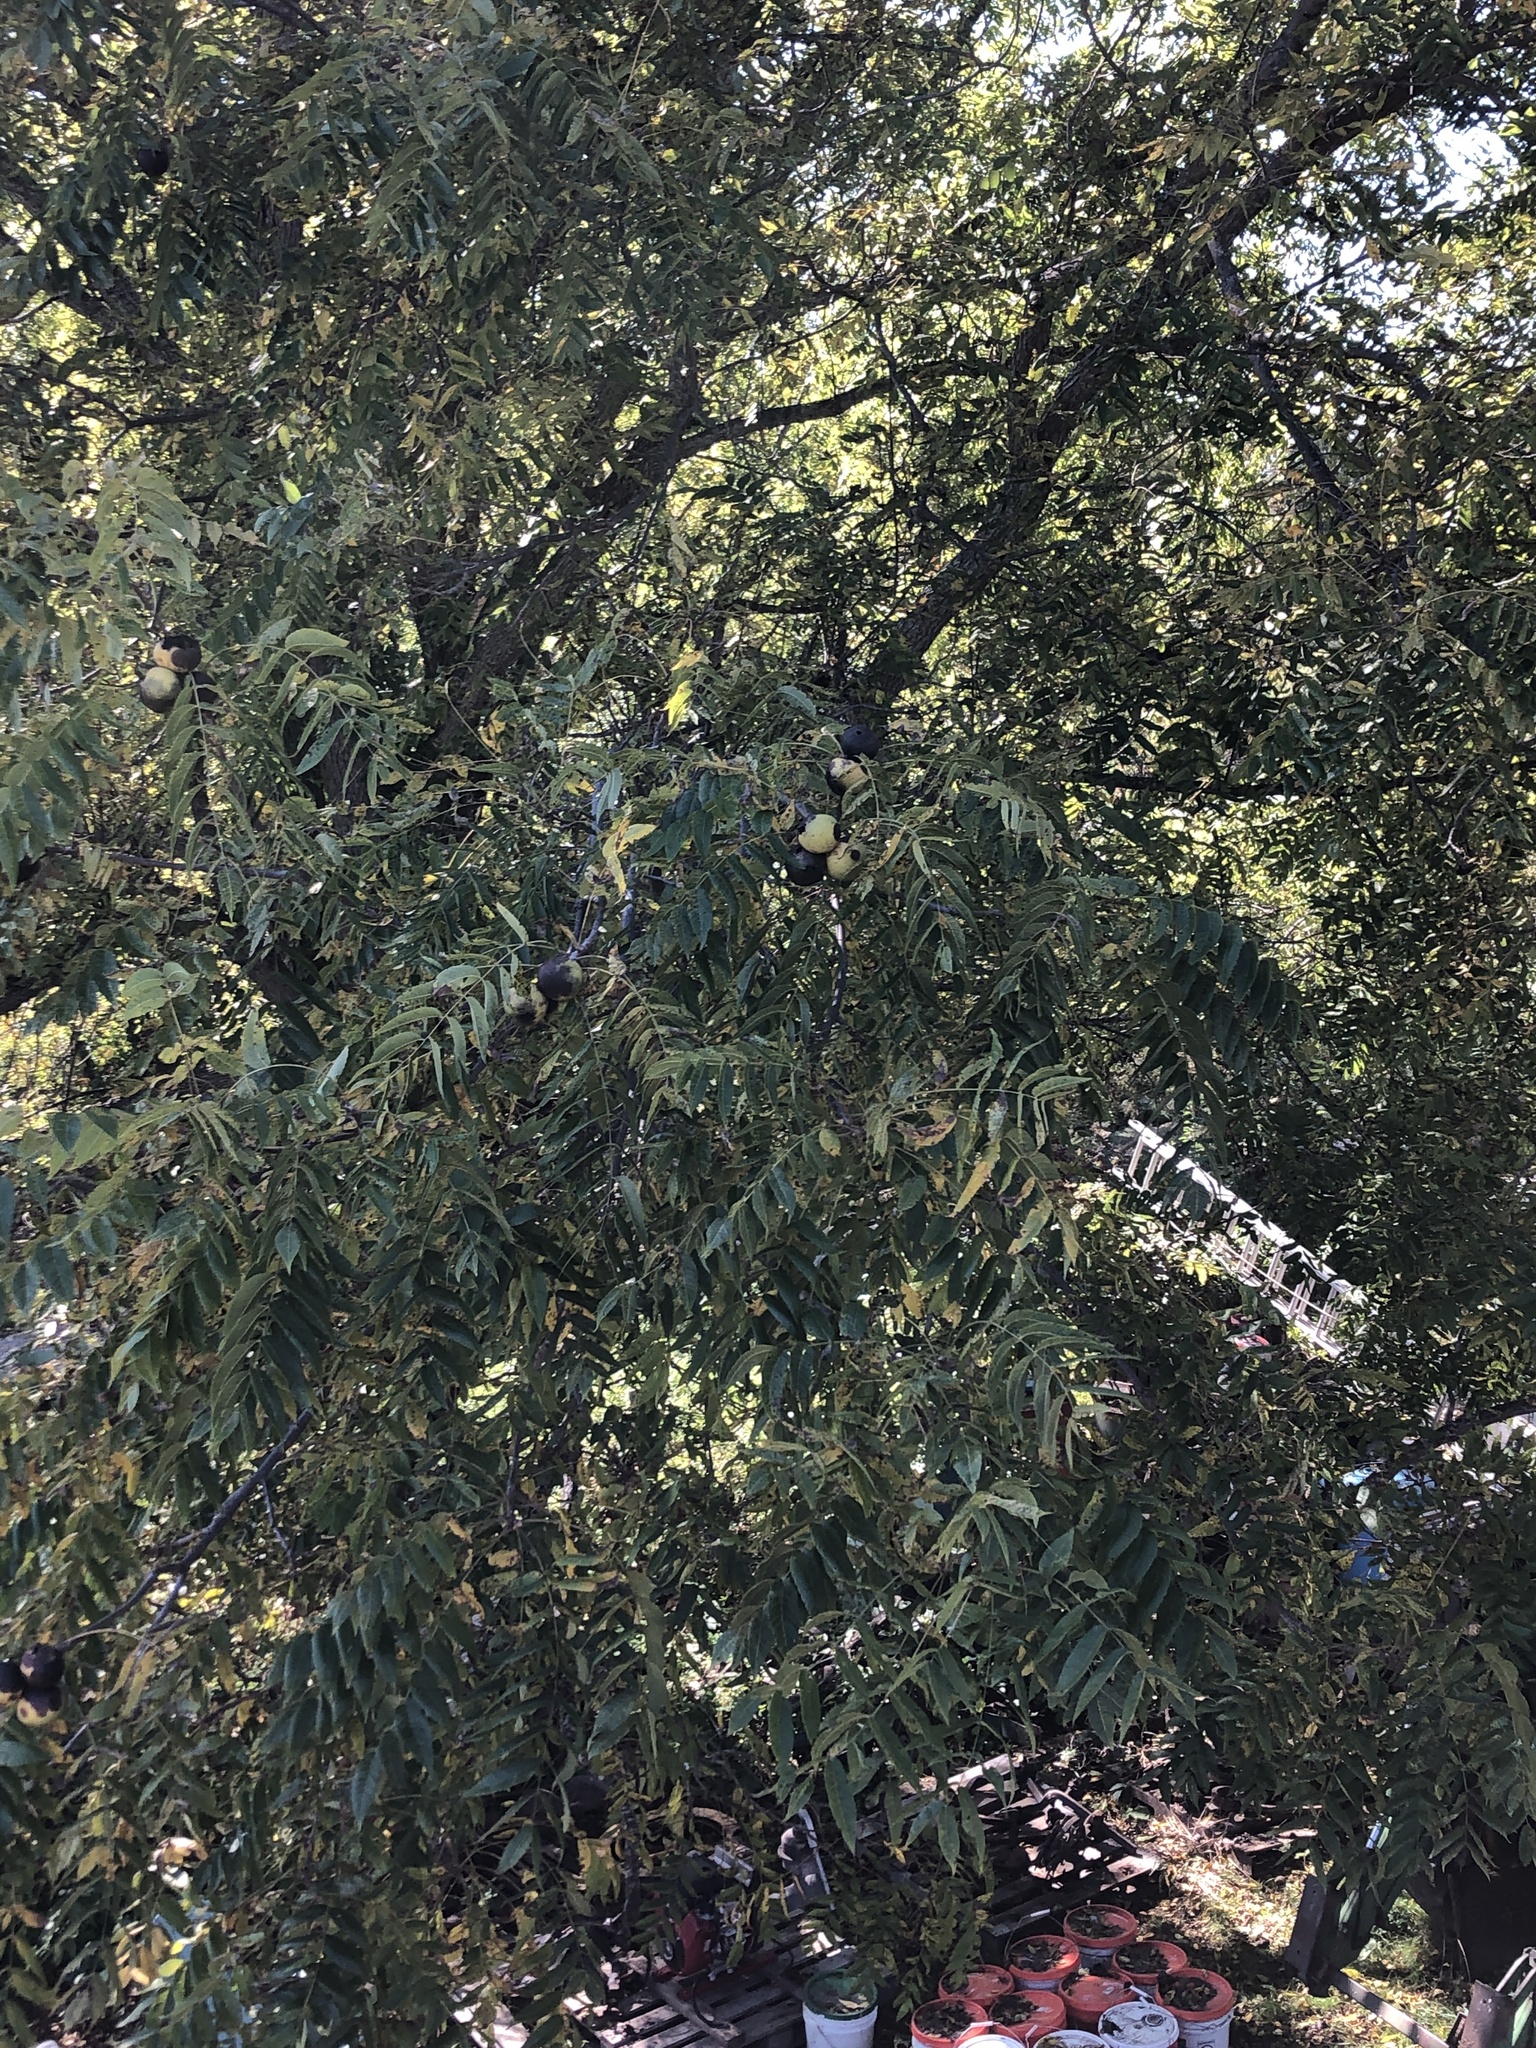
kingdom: Plantae
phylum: Tracheophyta
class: Magnoliopsida
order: Fagales
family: Juglandaceae
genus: Juglans
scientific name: Juglans nigra
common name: Black walnut
